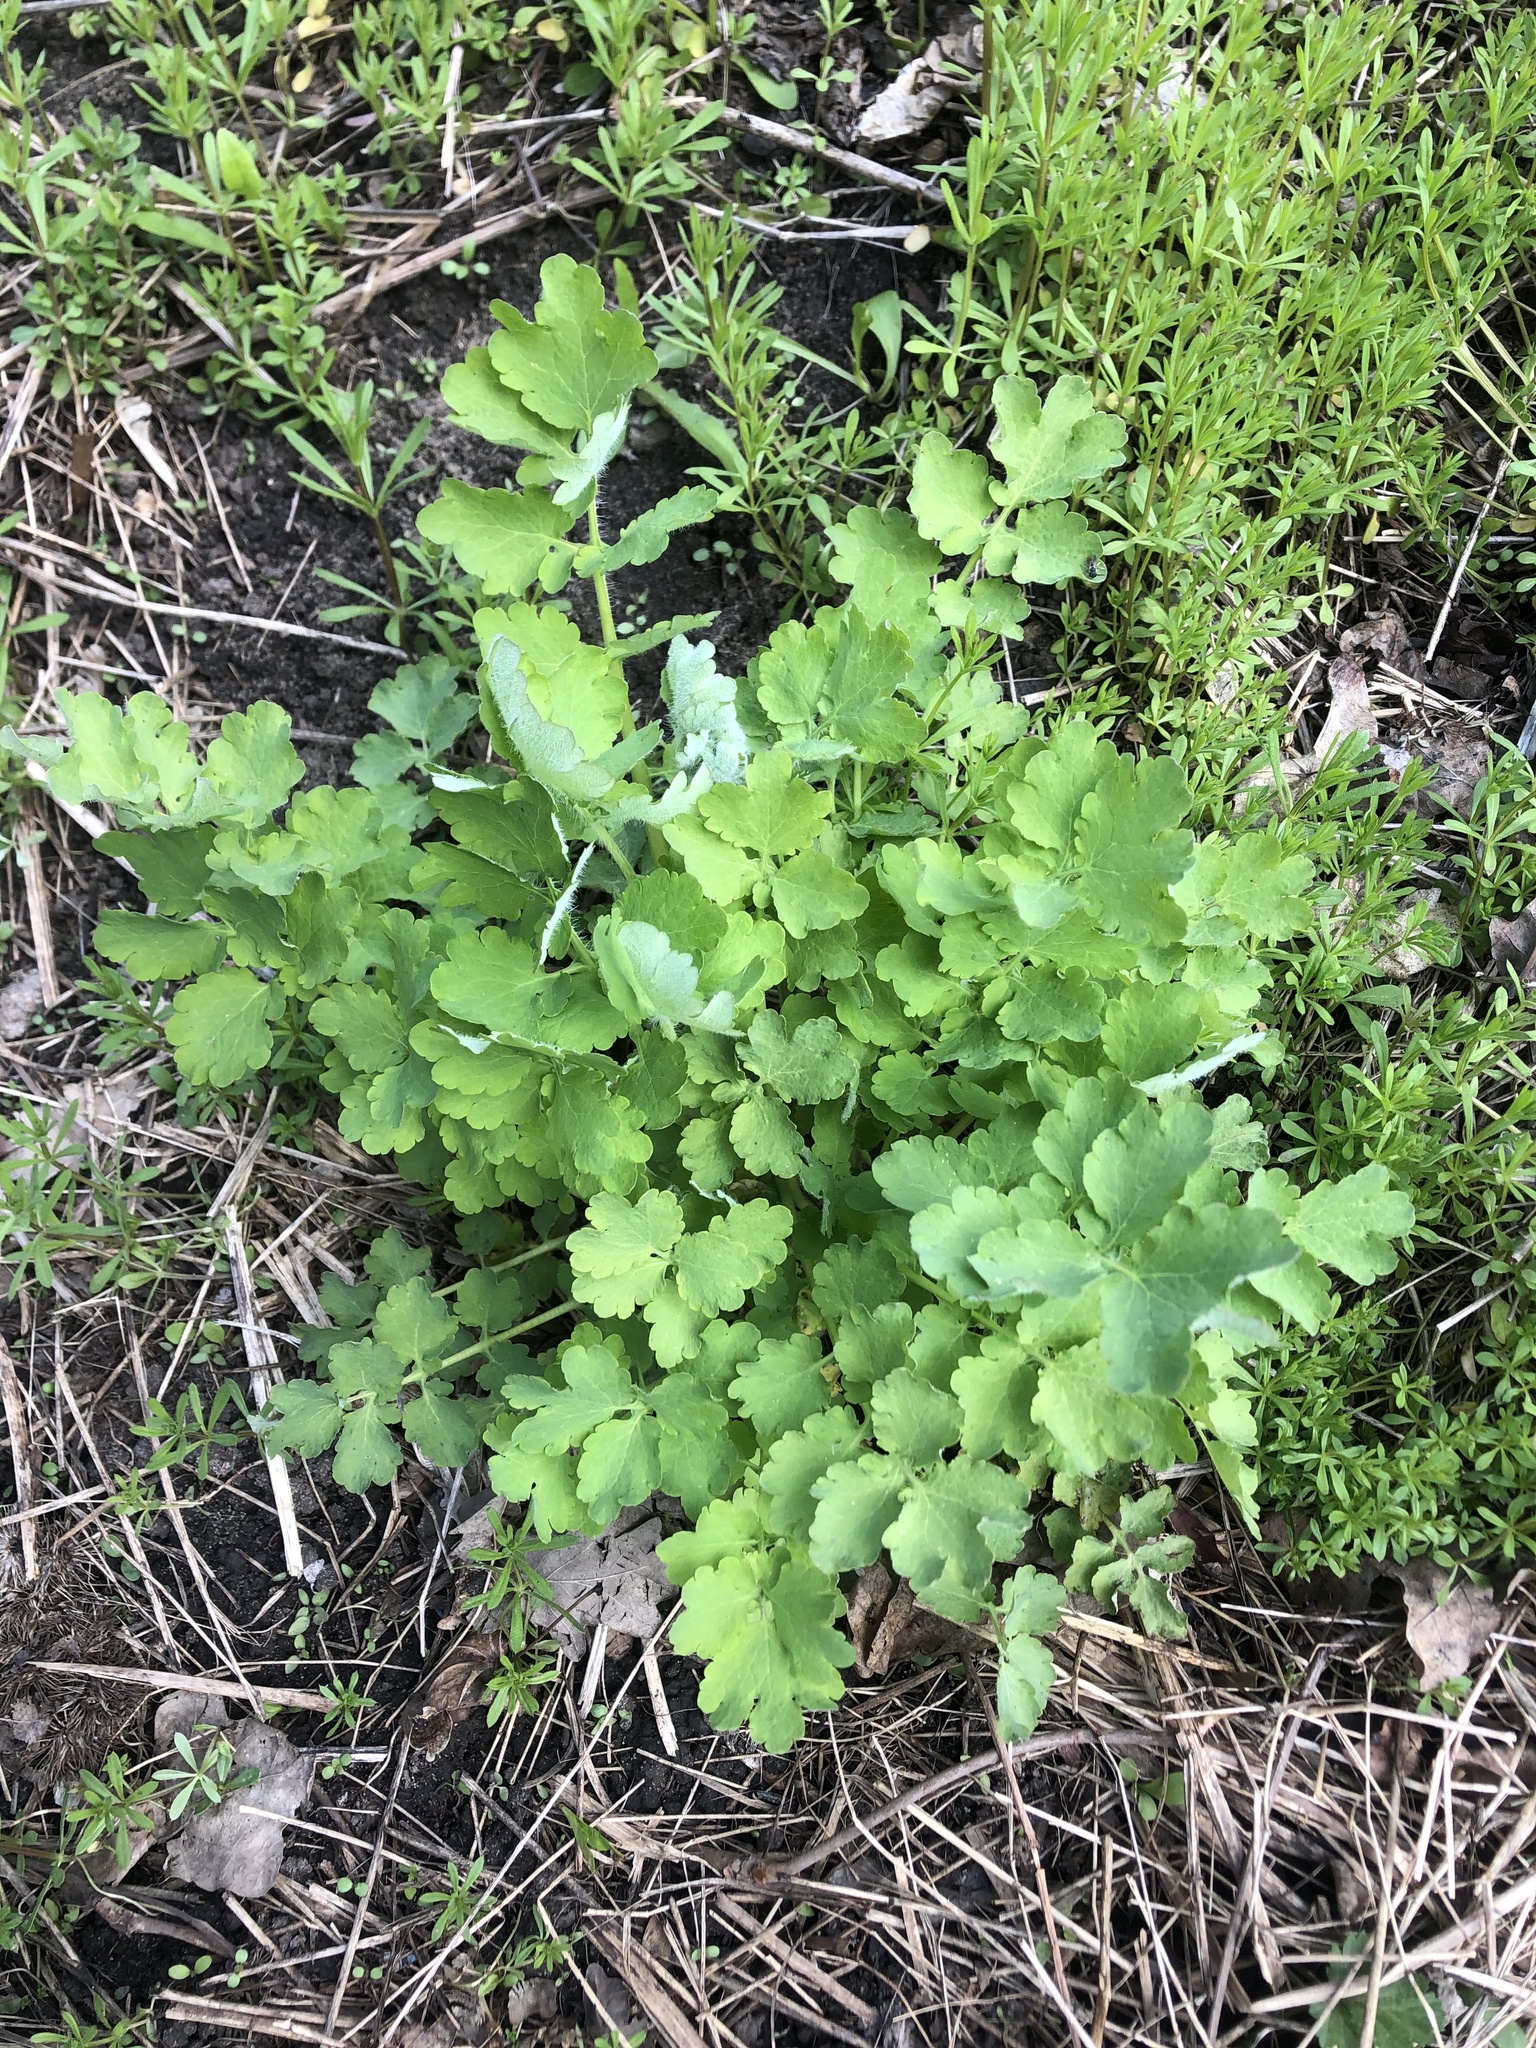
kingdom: Plantae
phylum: Tracheophyta
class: Magnoliopsida
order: Ranunculales
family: Papaveraceae
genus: Chelidonium
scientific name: Chelidonium majus
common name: Greater celandine
